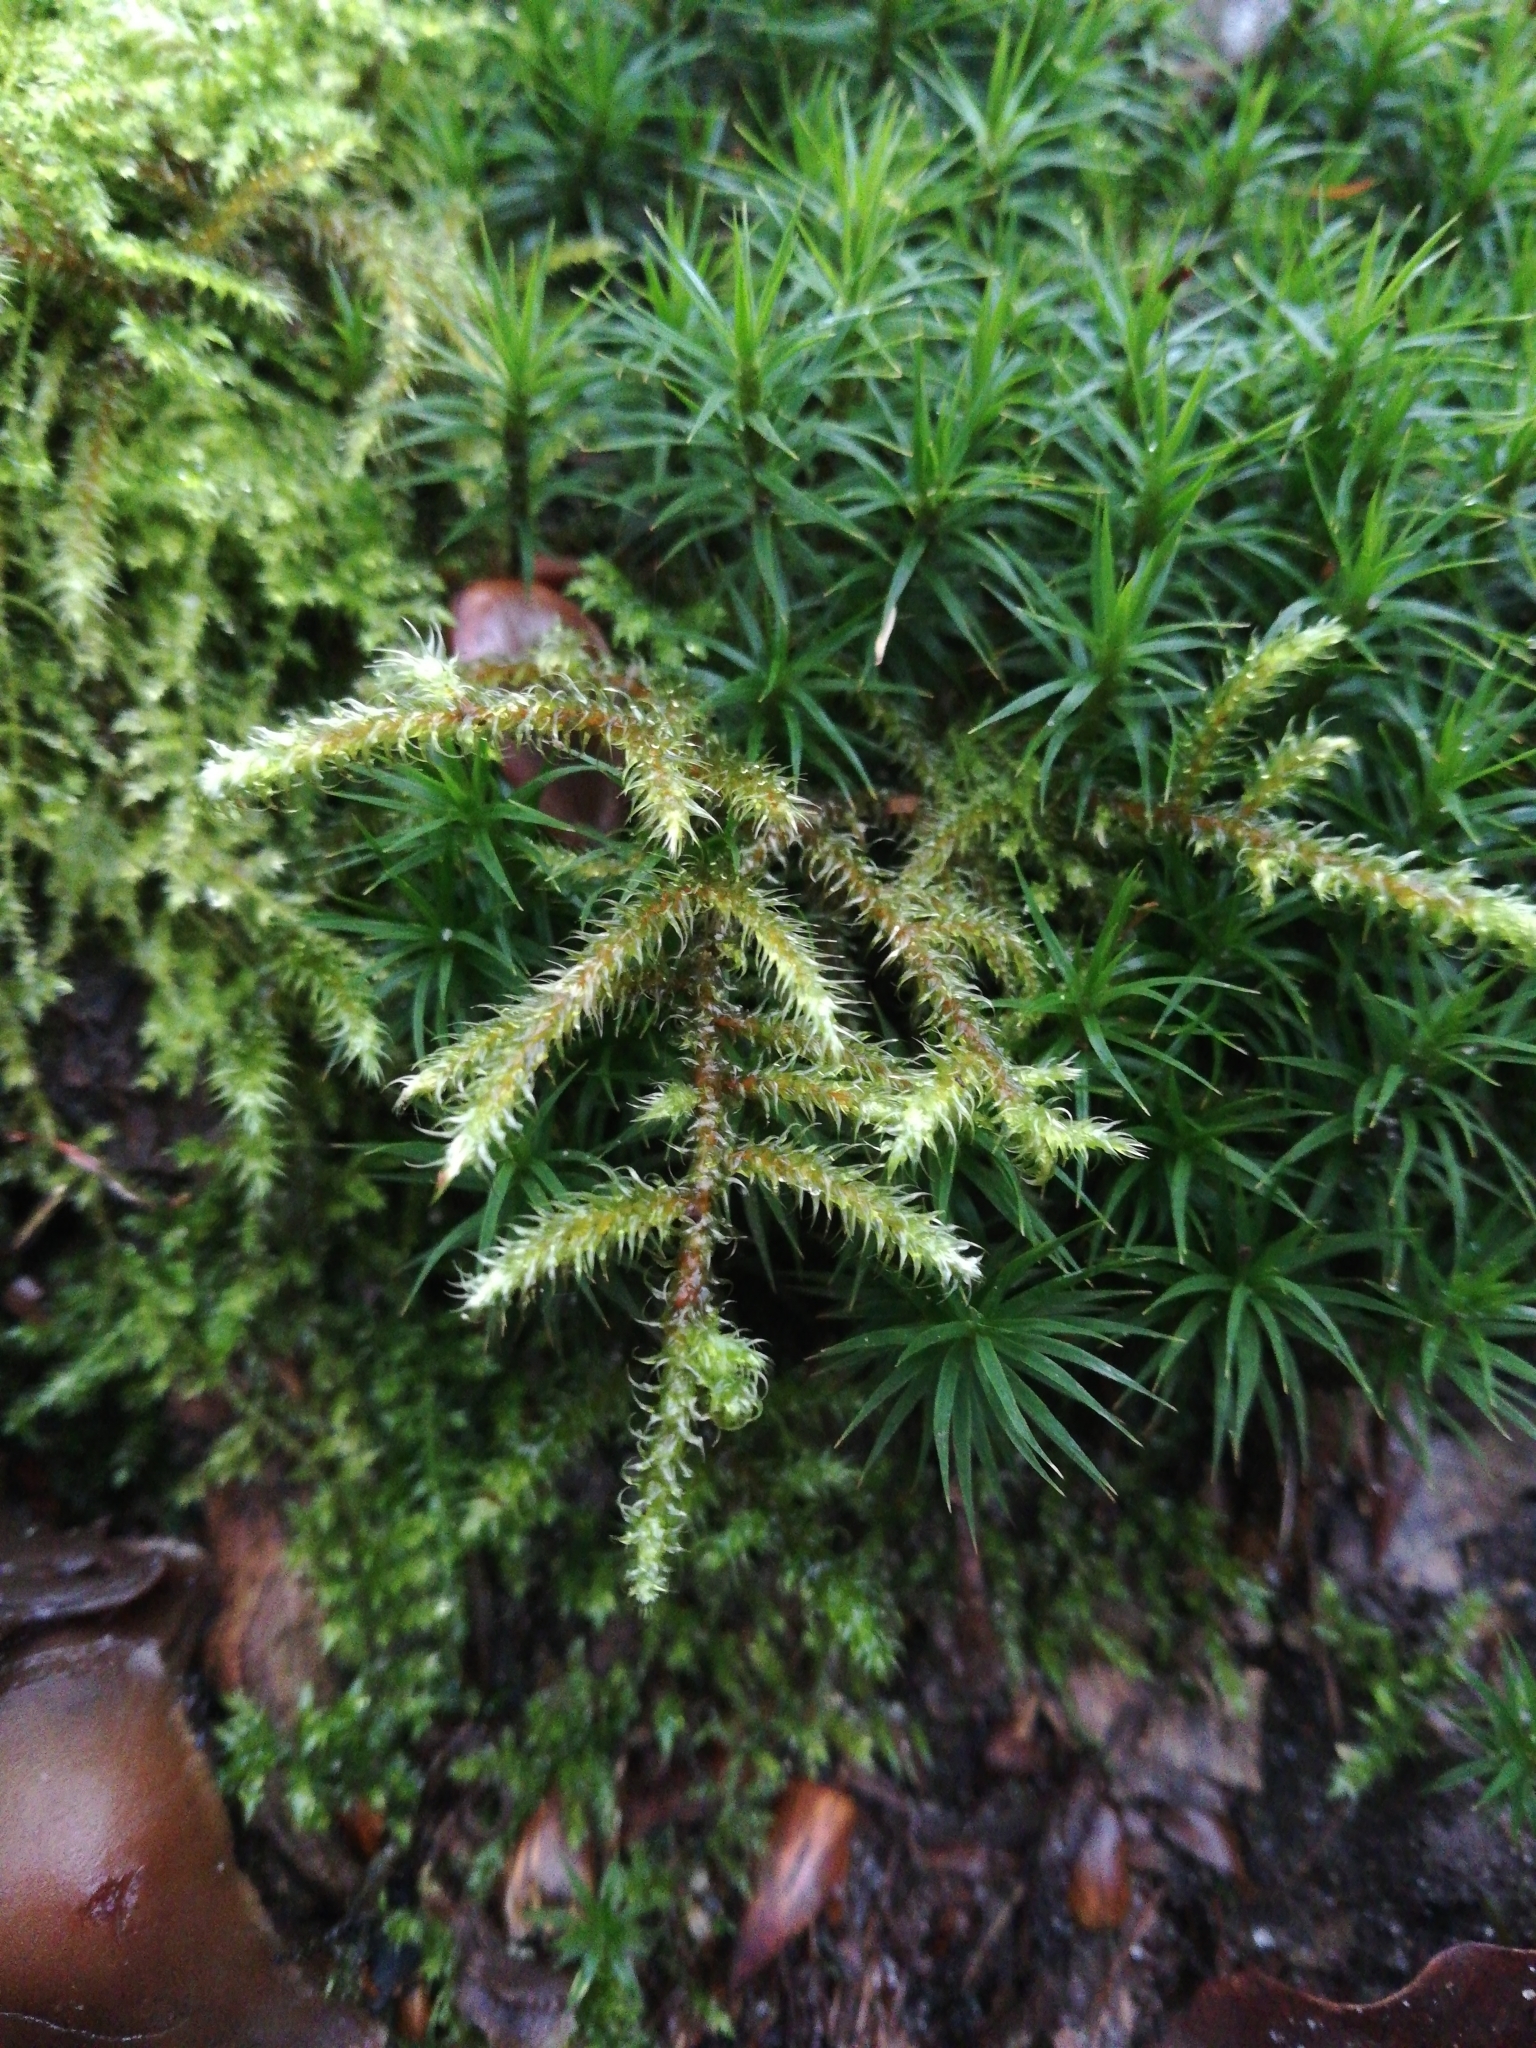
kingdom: Plantae
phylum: Bryophyta
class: Bryopsida
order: Hypnales
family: Hylocomiaceae
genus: Rhytidiadelphus
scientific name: Rhytidiadelphus loreus
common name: Lanky moss
